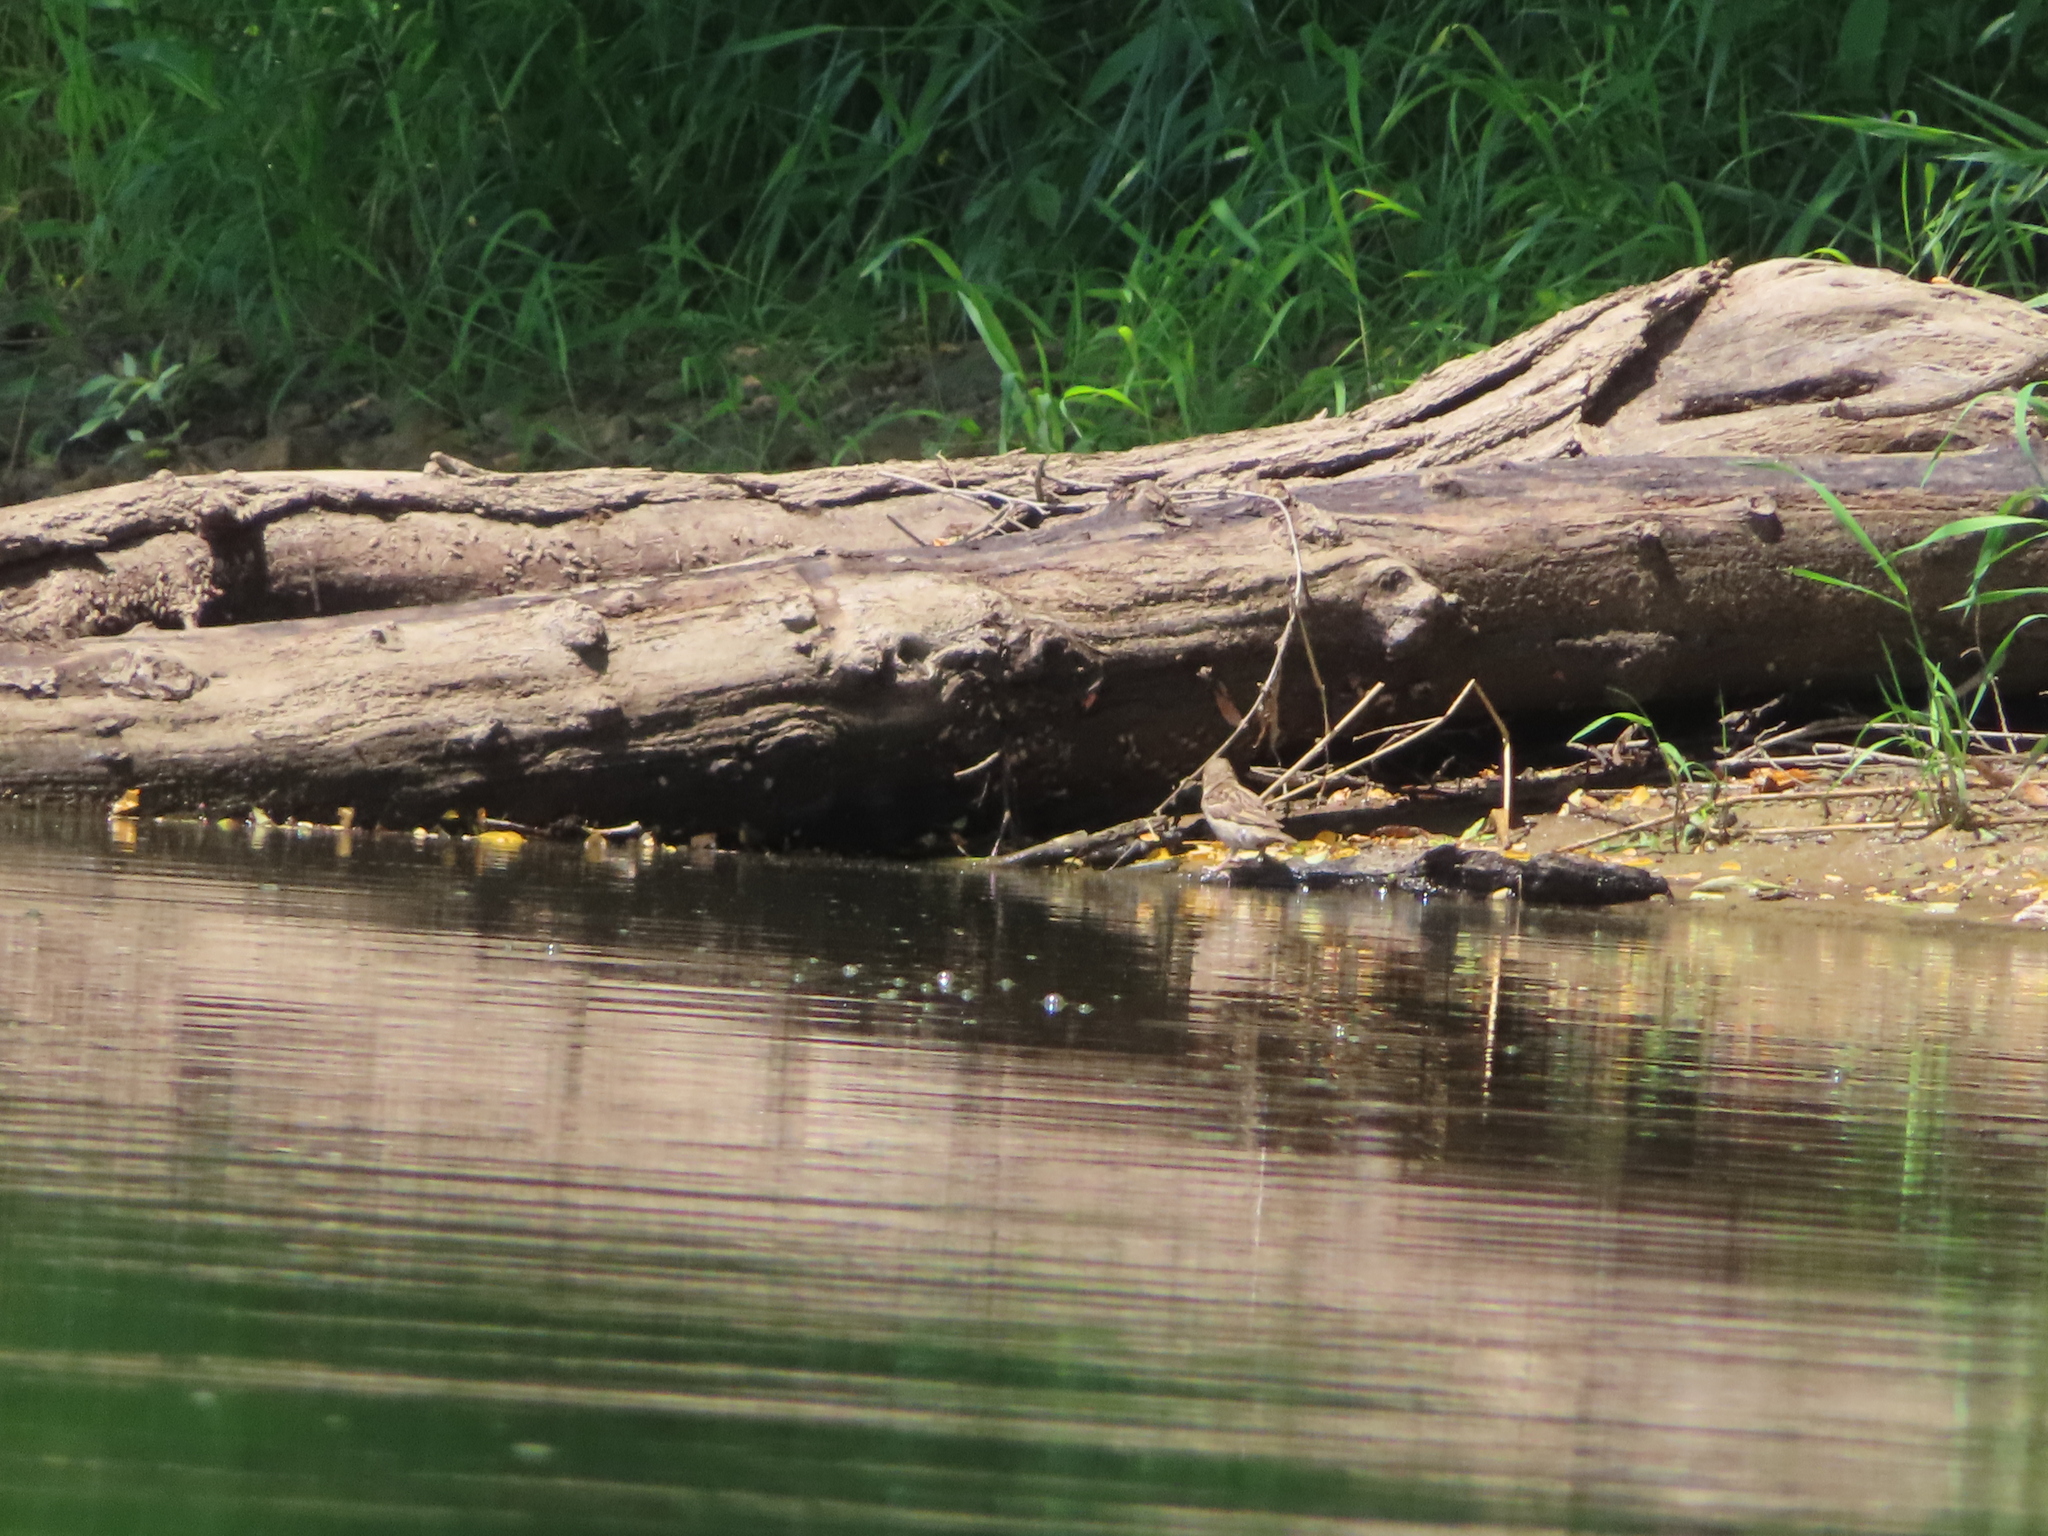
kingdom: Animalia
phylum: Chordata
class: Aves
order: Passeriformes
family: Passeridae
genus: Passer
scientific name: Passer domesticus
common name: House sparrow
